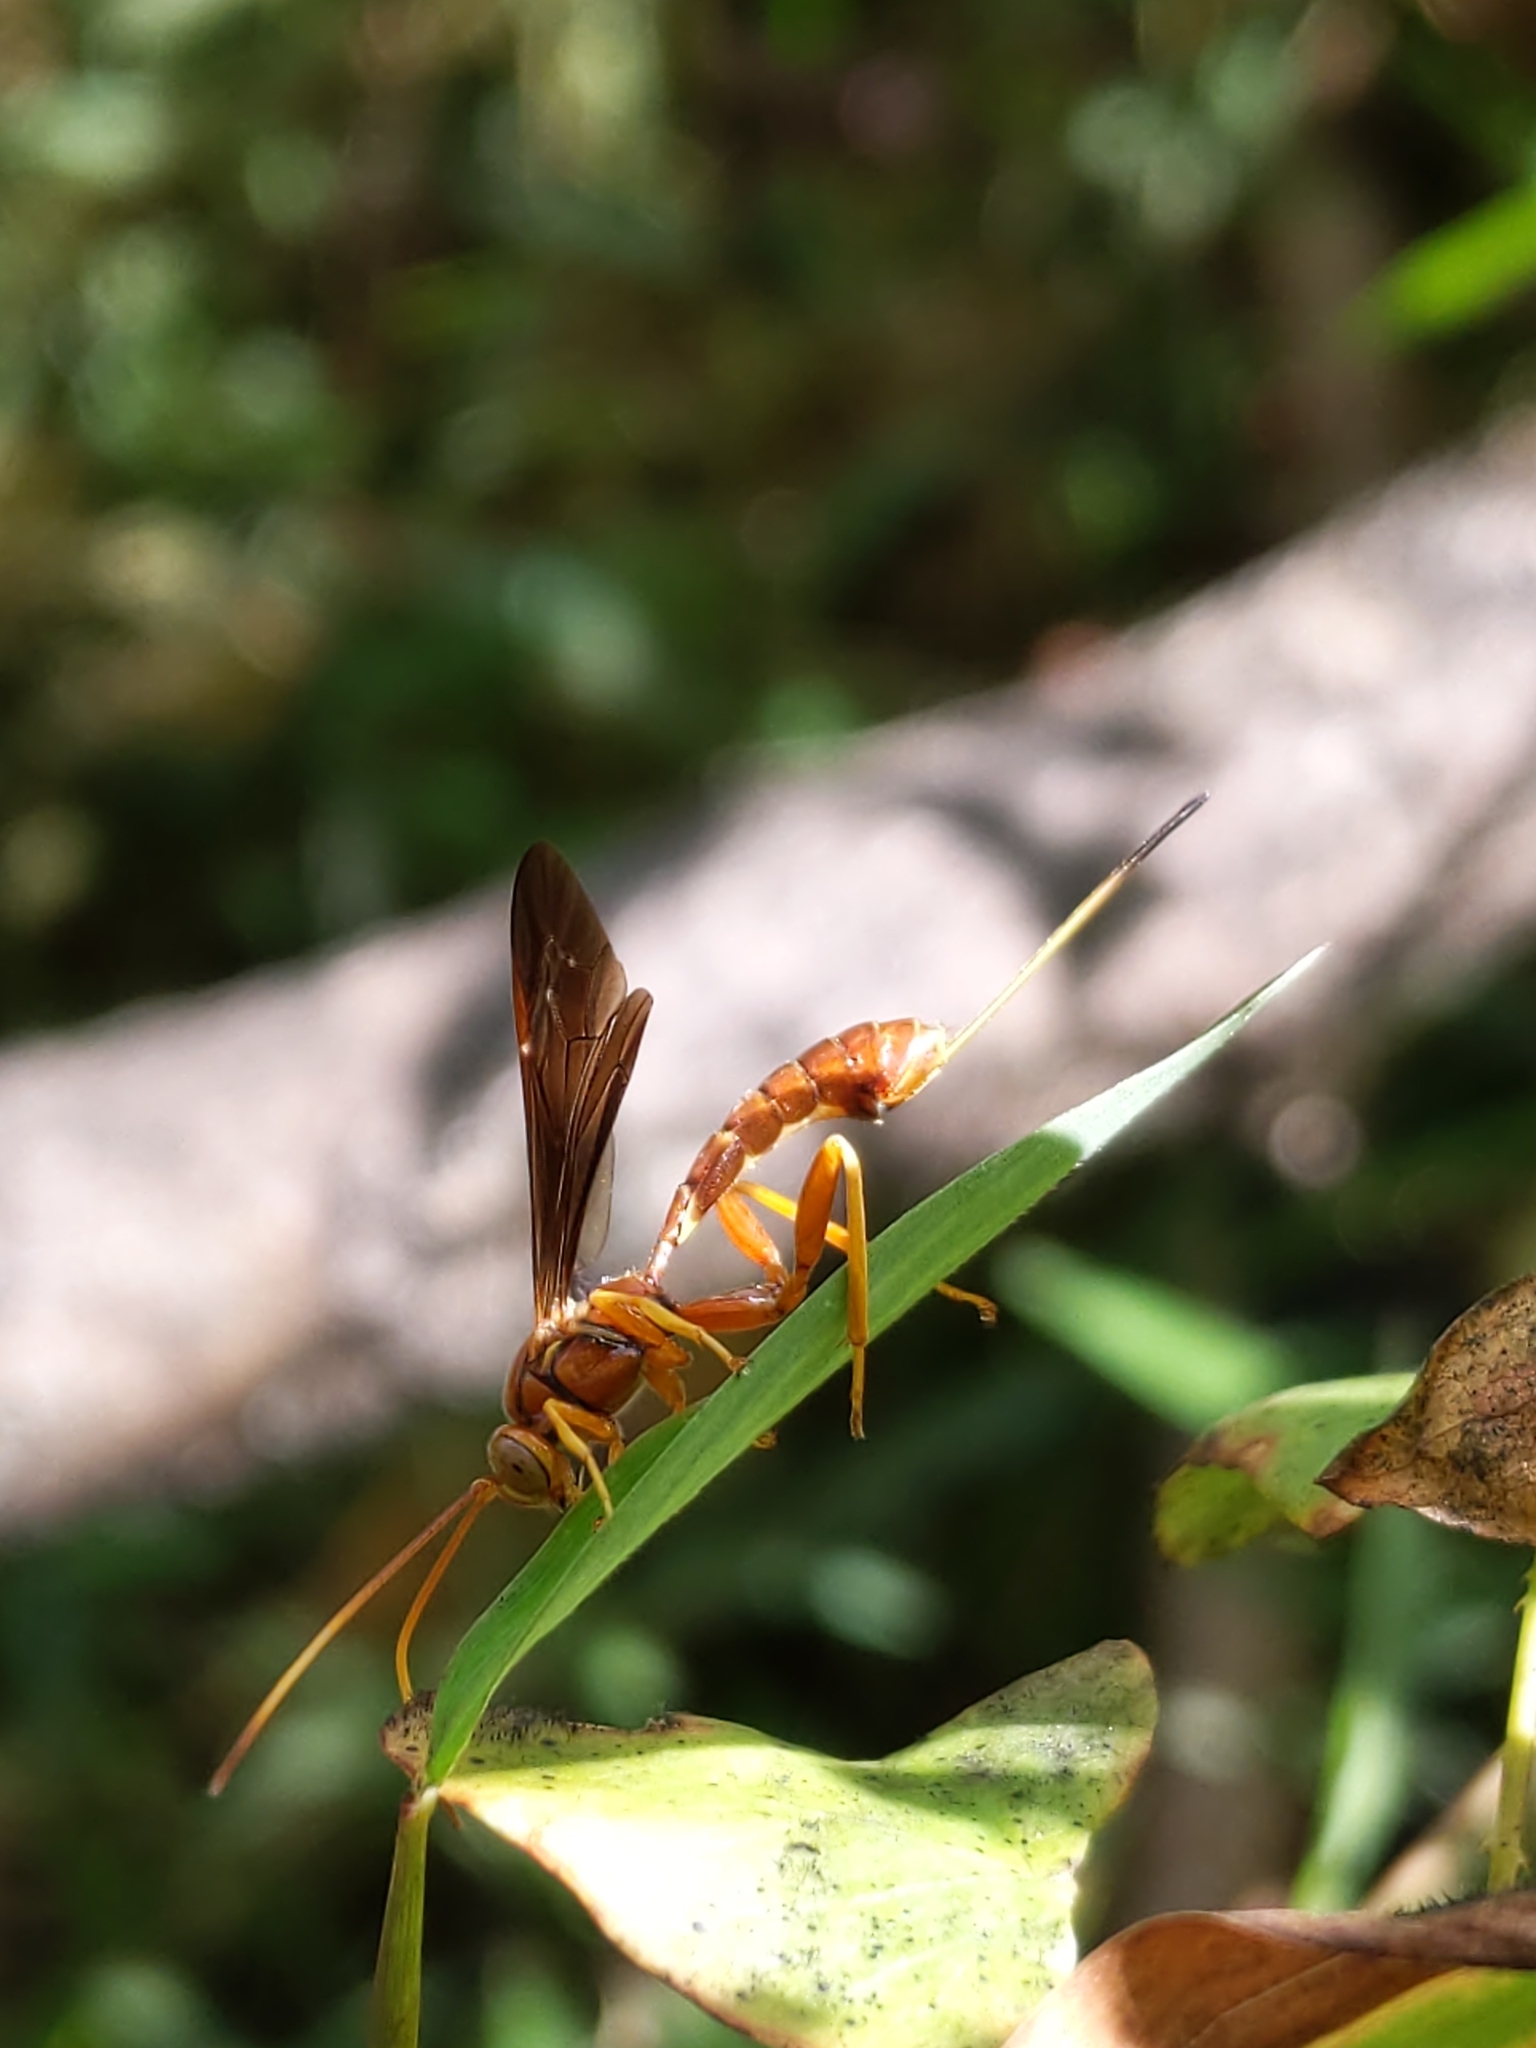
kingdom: Animalia
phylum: Arthropoda
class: Insecta
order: Hymenoptera
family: Ichneumonidae
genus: Labena
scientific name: Labena grallator
